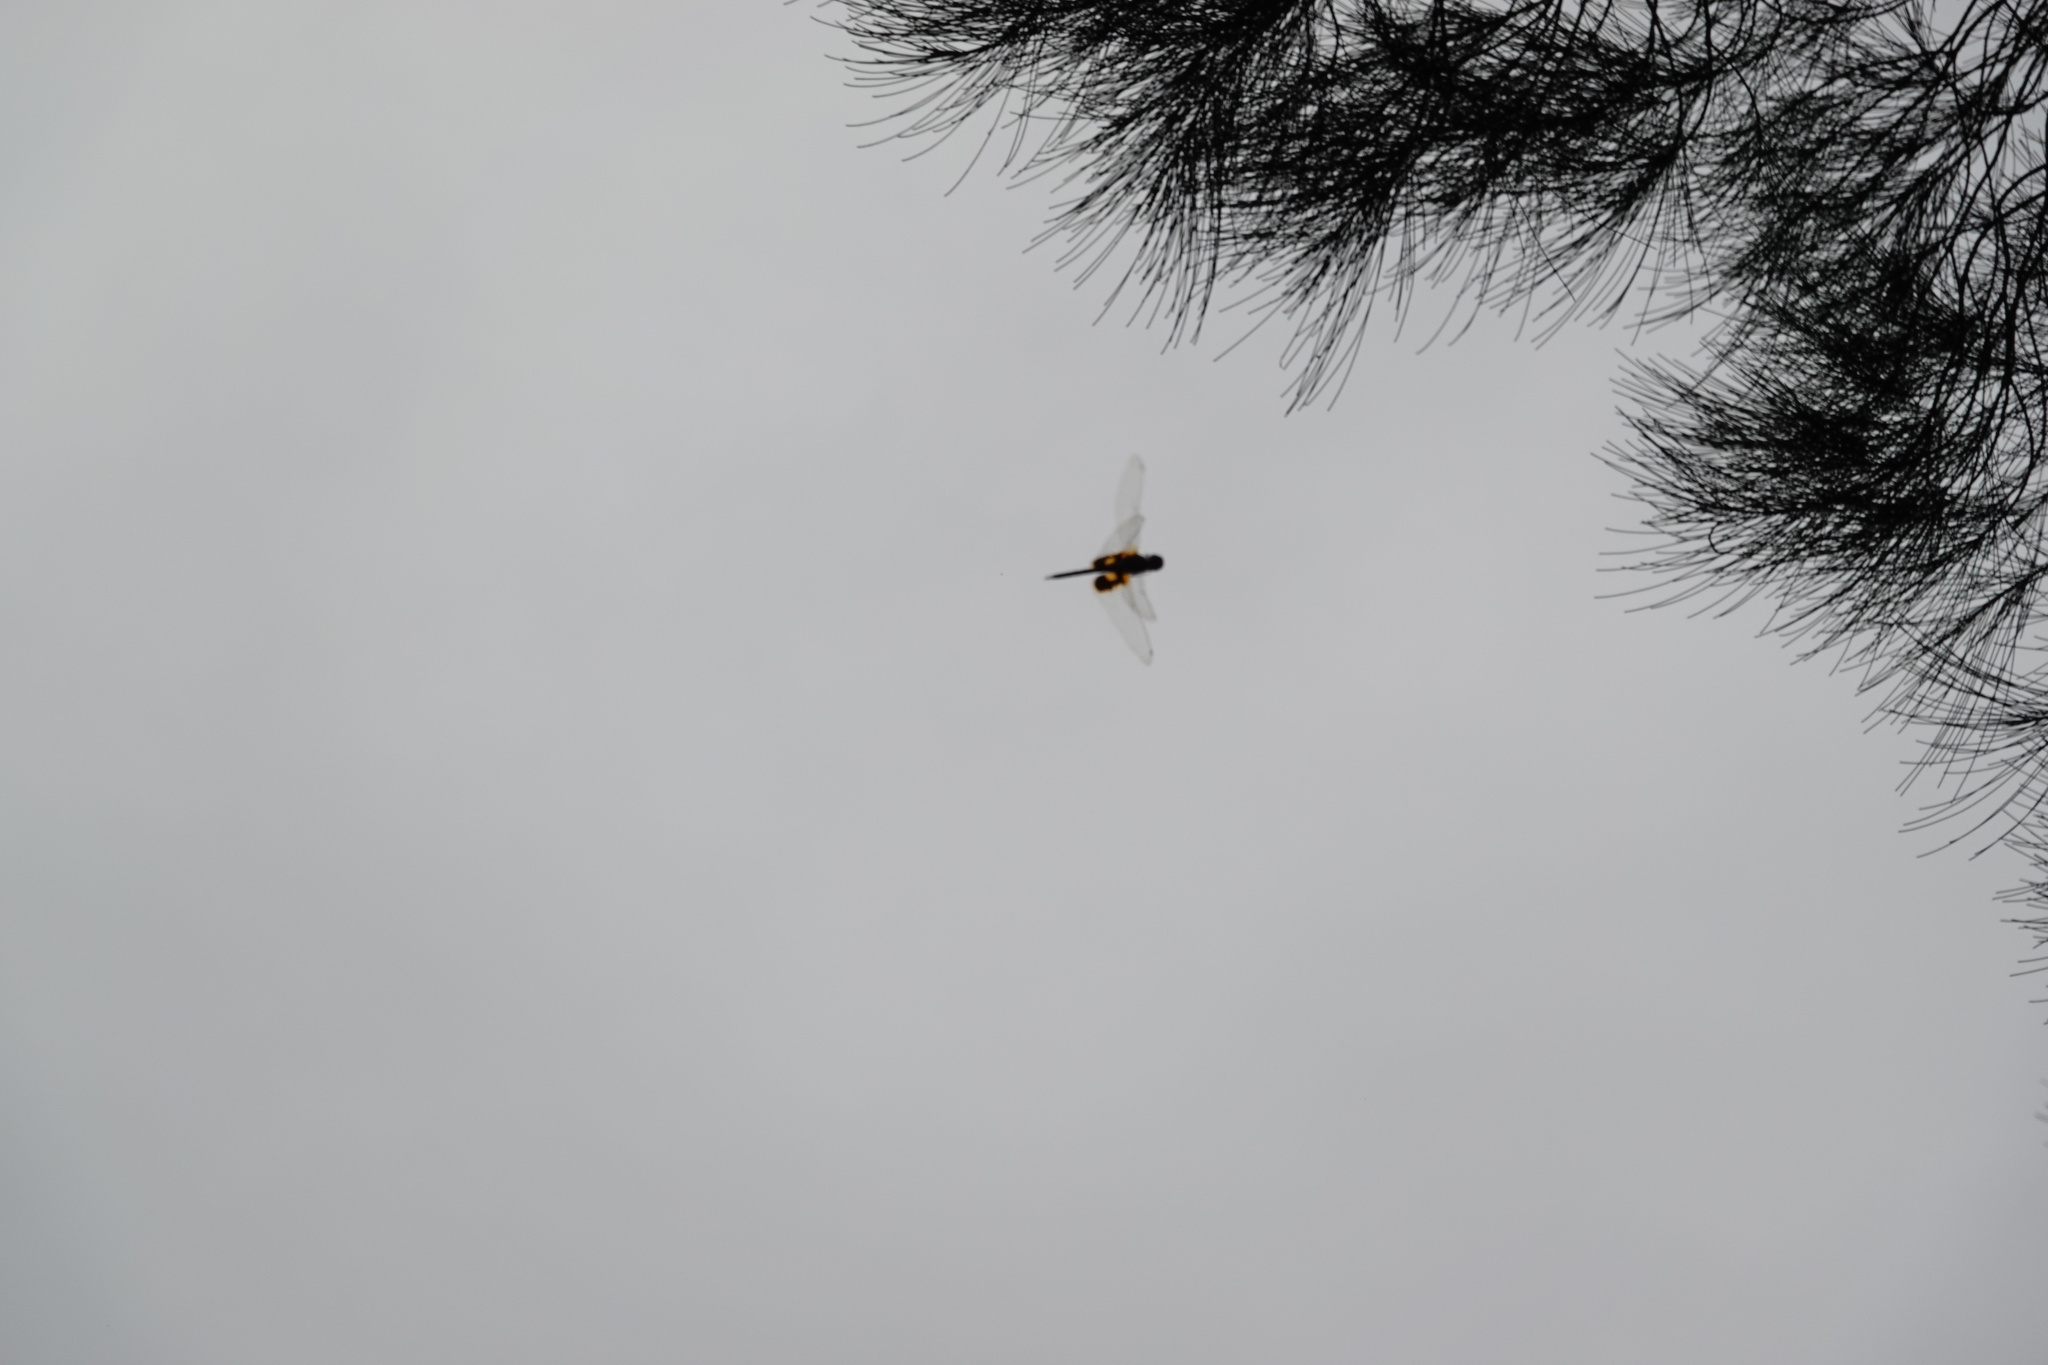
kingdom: Animalia
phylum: Arthropoda
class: Insecta
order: Odonata
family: Libellulidae
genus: Tramea
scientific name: Tramea virginia
